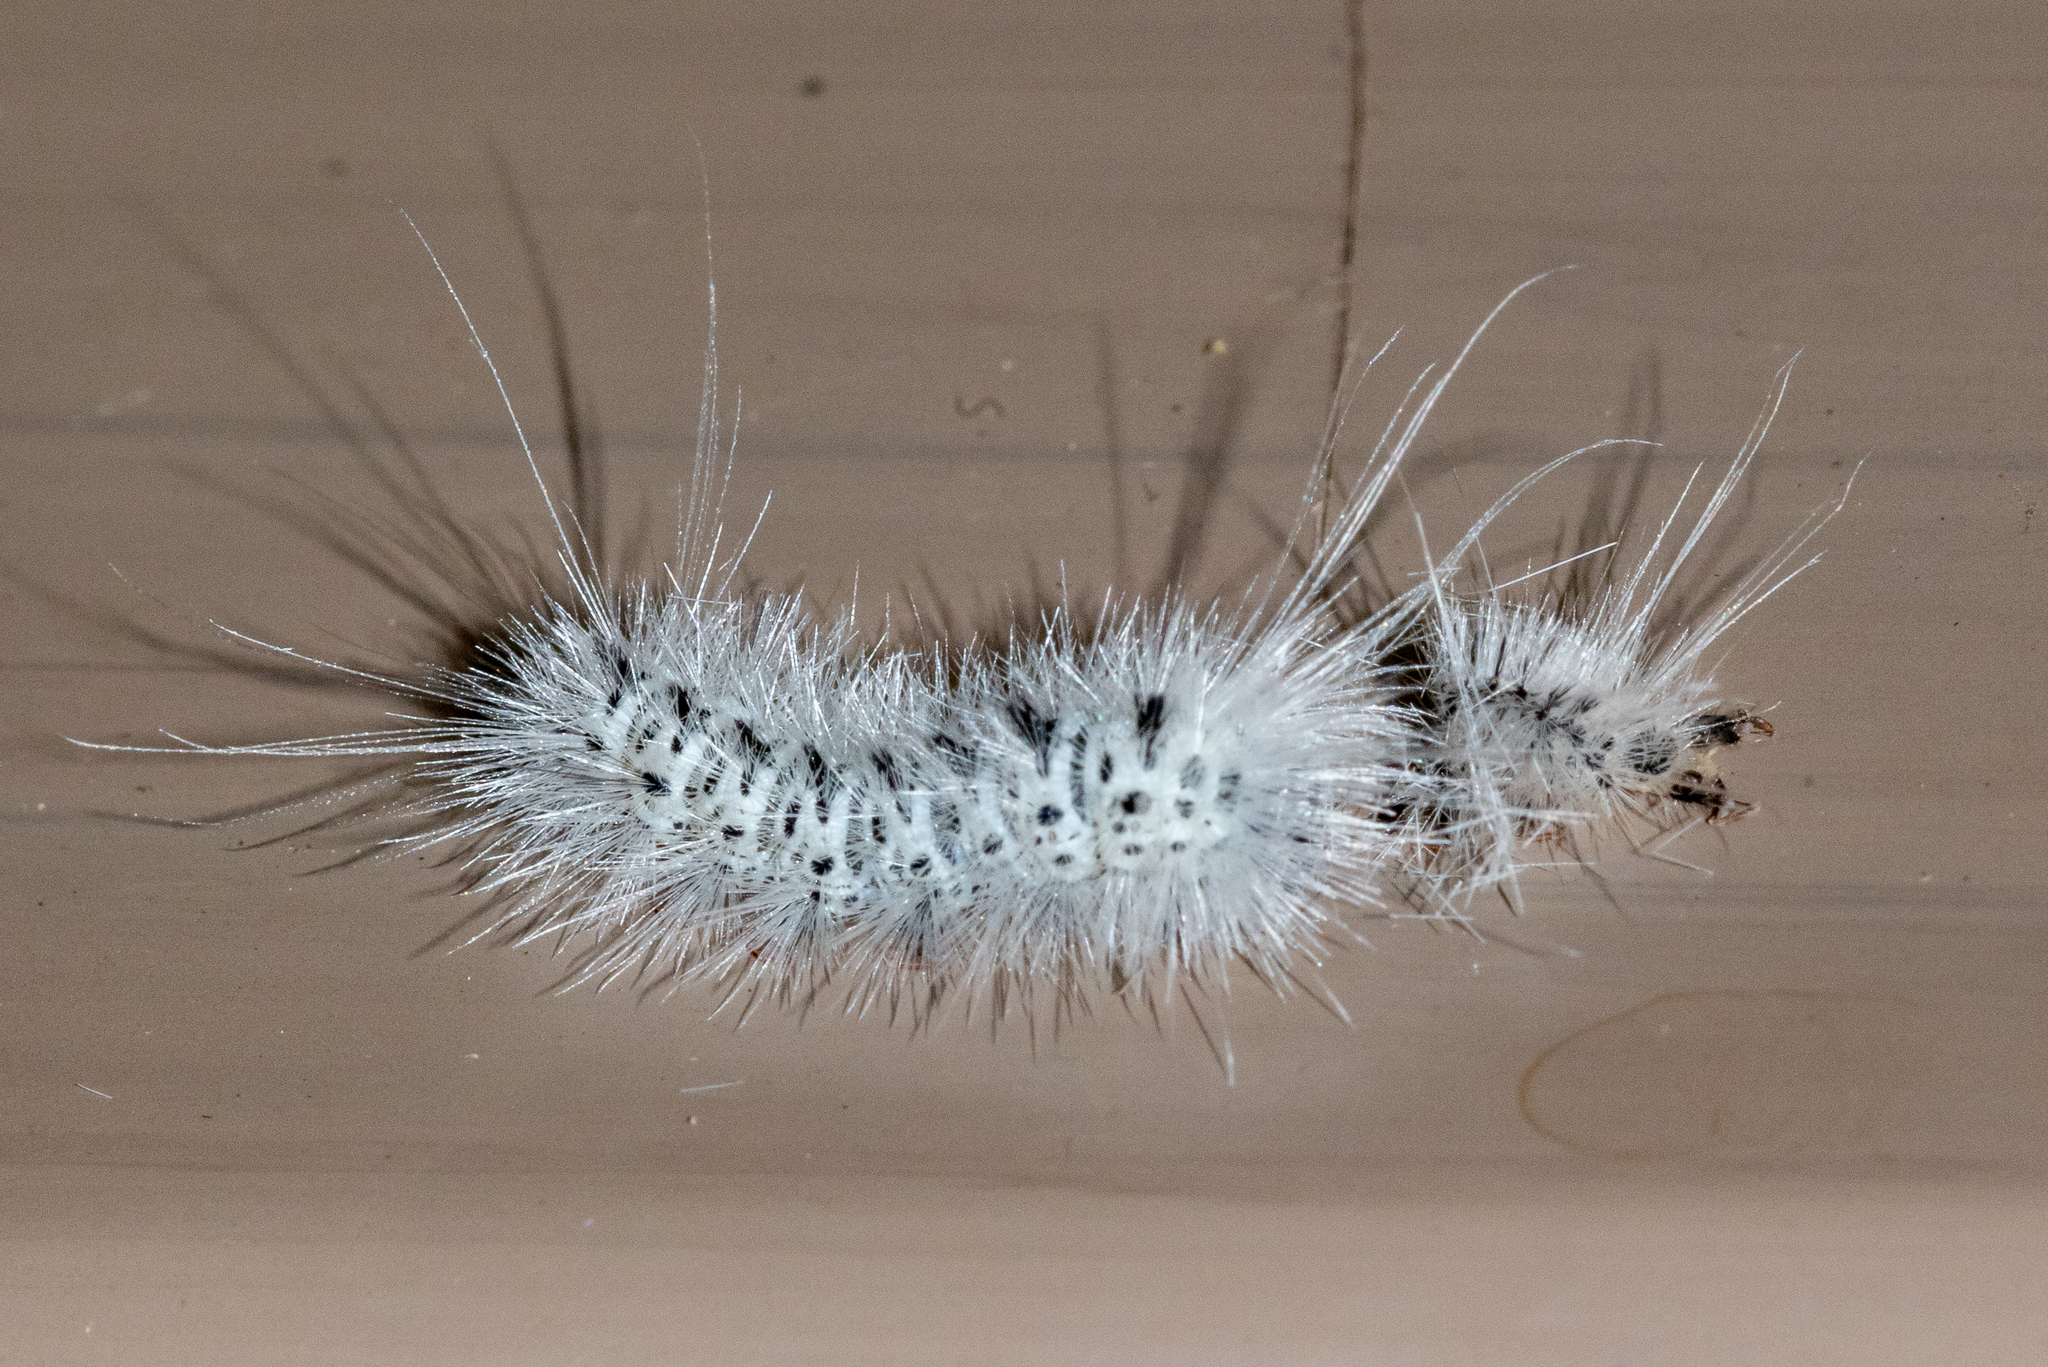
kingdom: Animalia
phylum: Arthropoda
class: Insecta
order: Lepidoptera
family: Erebidae
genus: Lophocampa
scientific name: Lophocampa caryae
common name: Hickory tussock moth
